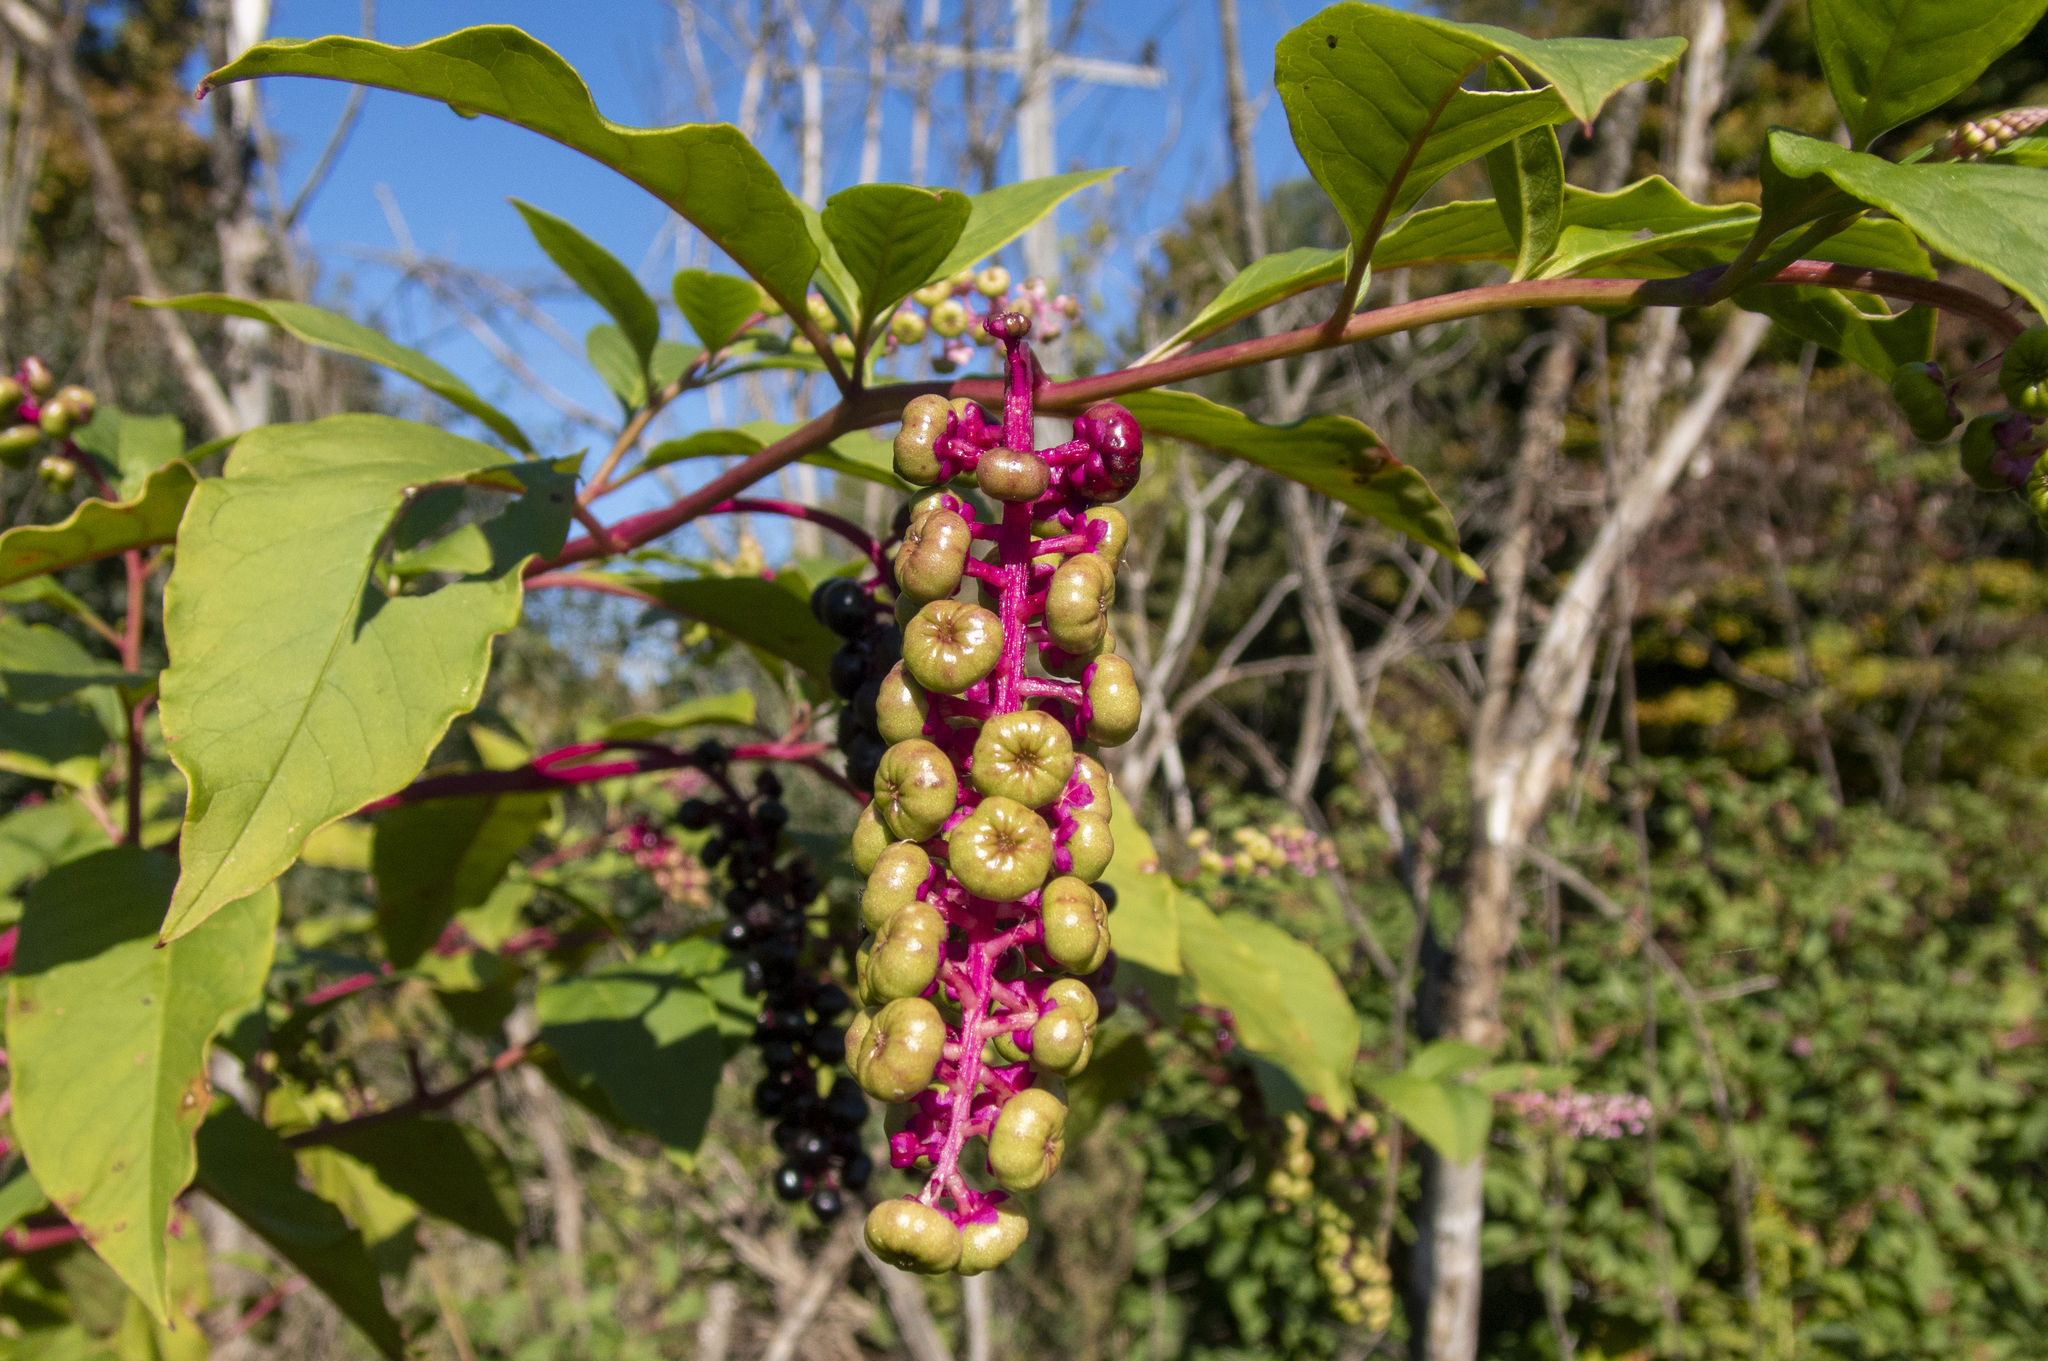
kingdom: Plantae
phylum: Tracheophyta
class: Magnoliopsida
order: Caryophyllales
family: Phytolaccaceae
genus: Phytolacca
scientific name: Phytolacca americana
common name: American pokeweed
